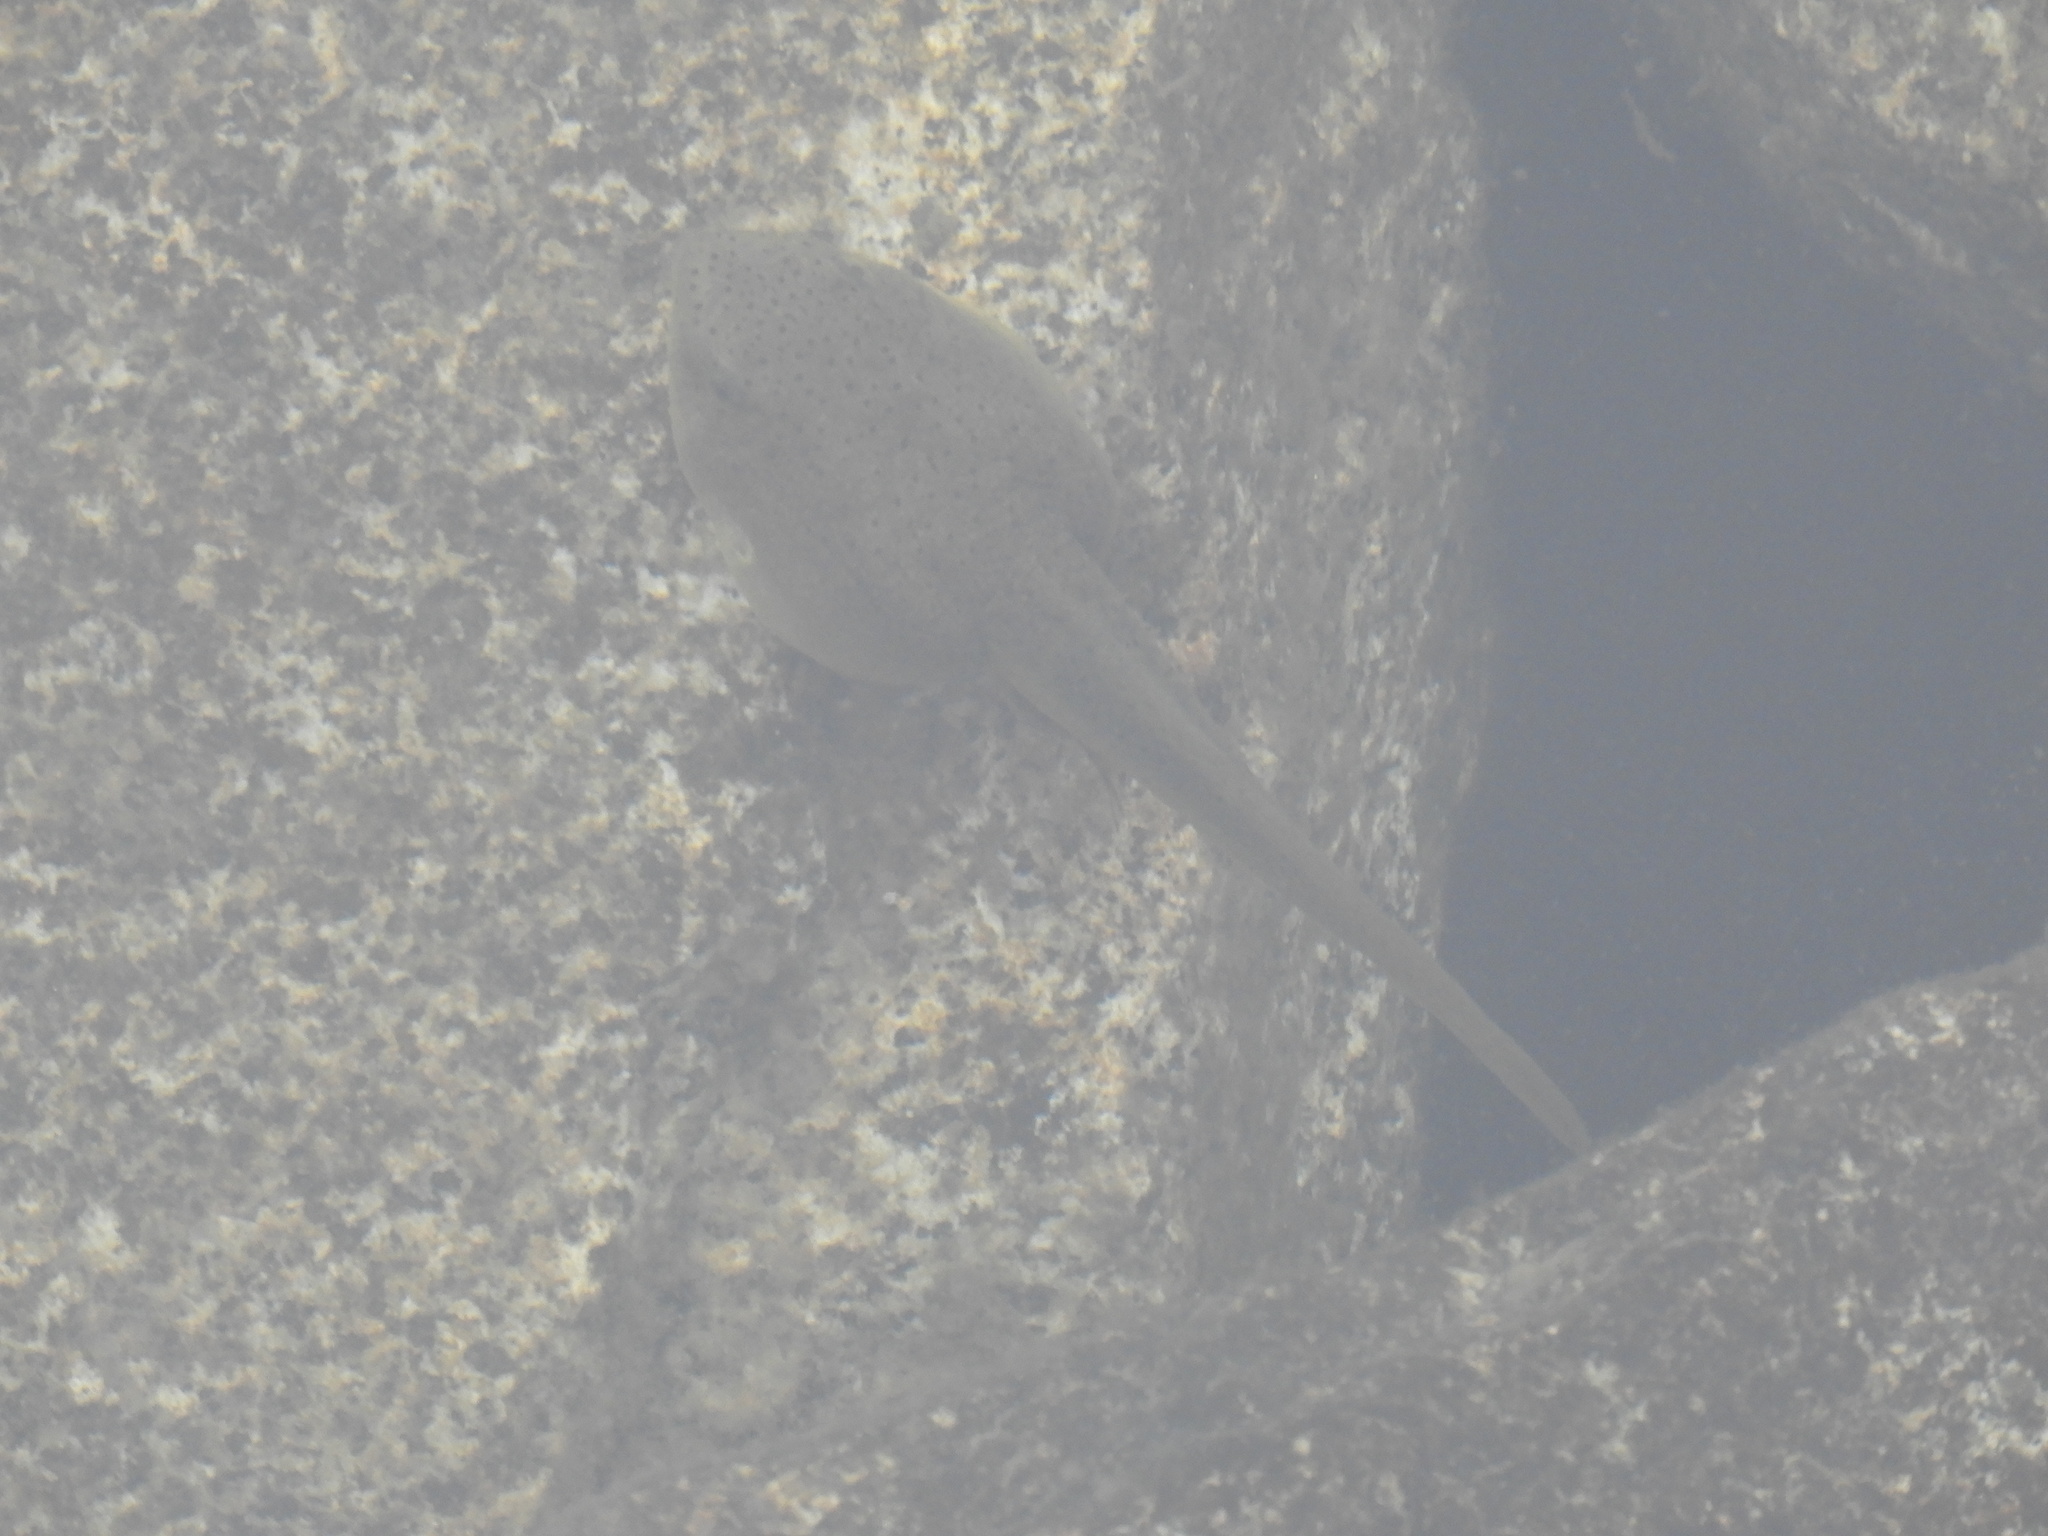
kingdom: Animalia
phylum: Chordata
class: Amphibia
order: Anura
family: Ranidae
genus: Lithobates
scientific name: Lithobates catesbeianus
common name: American bullfrog
